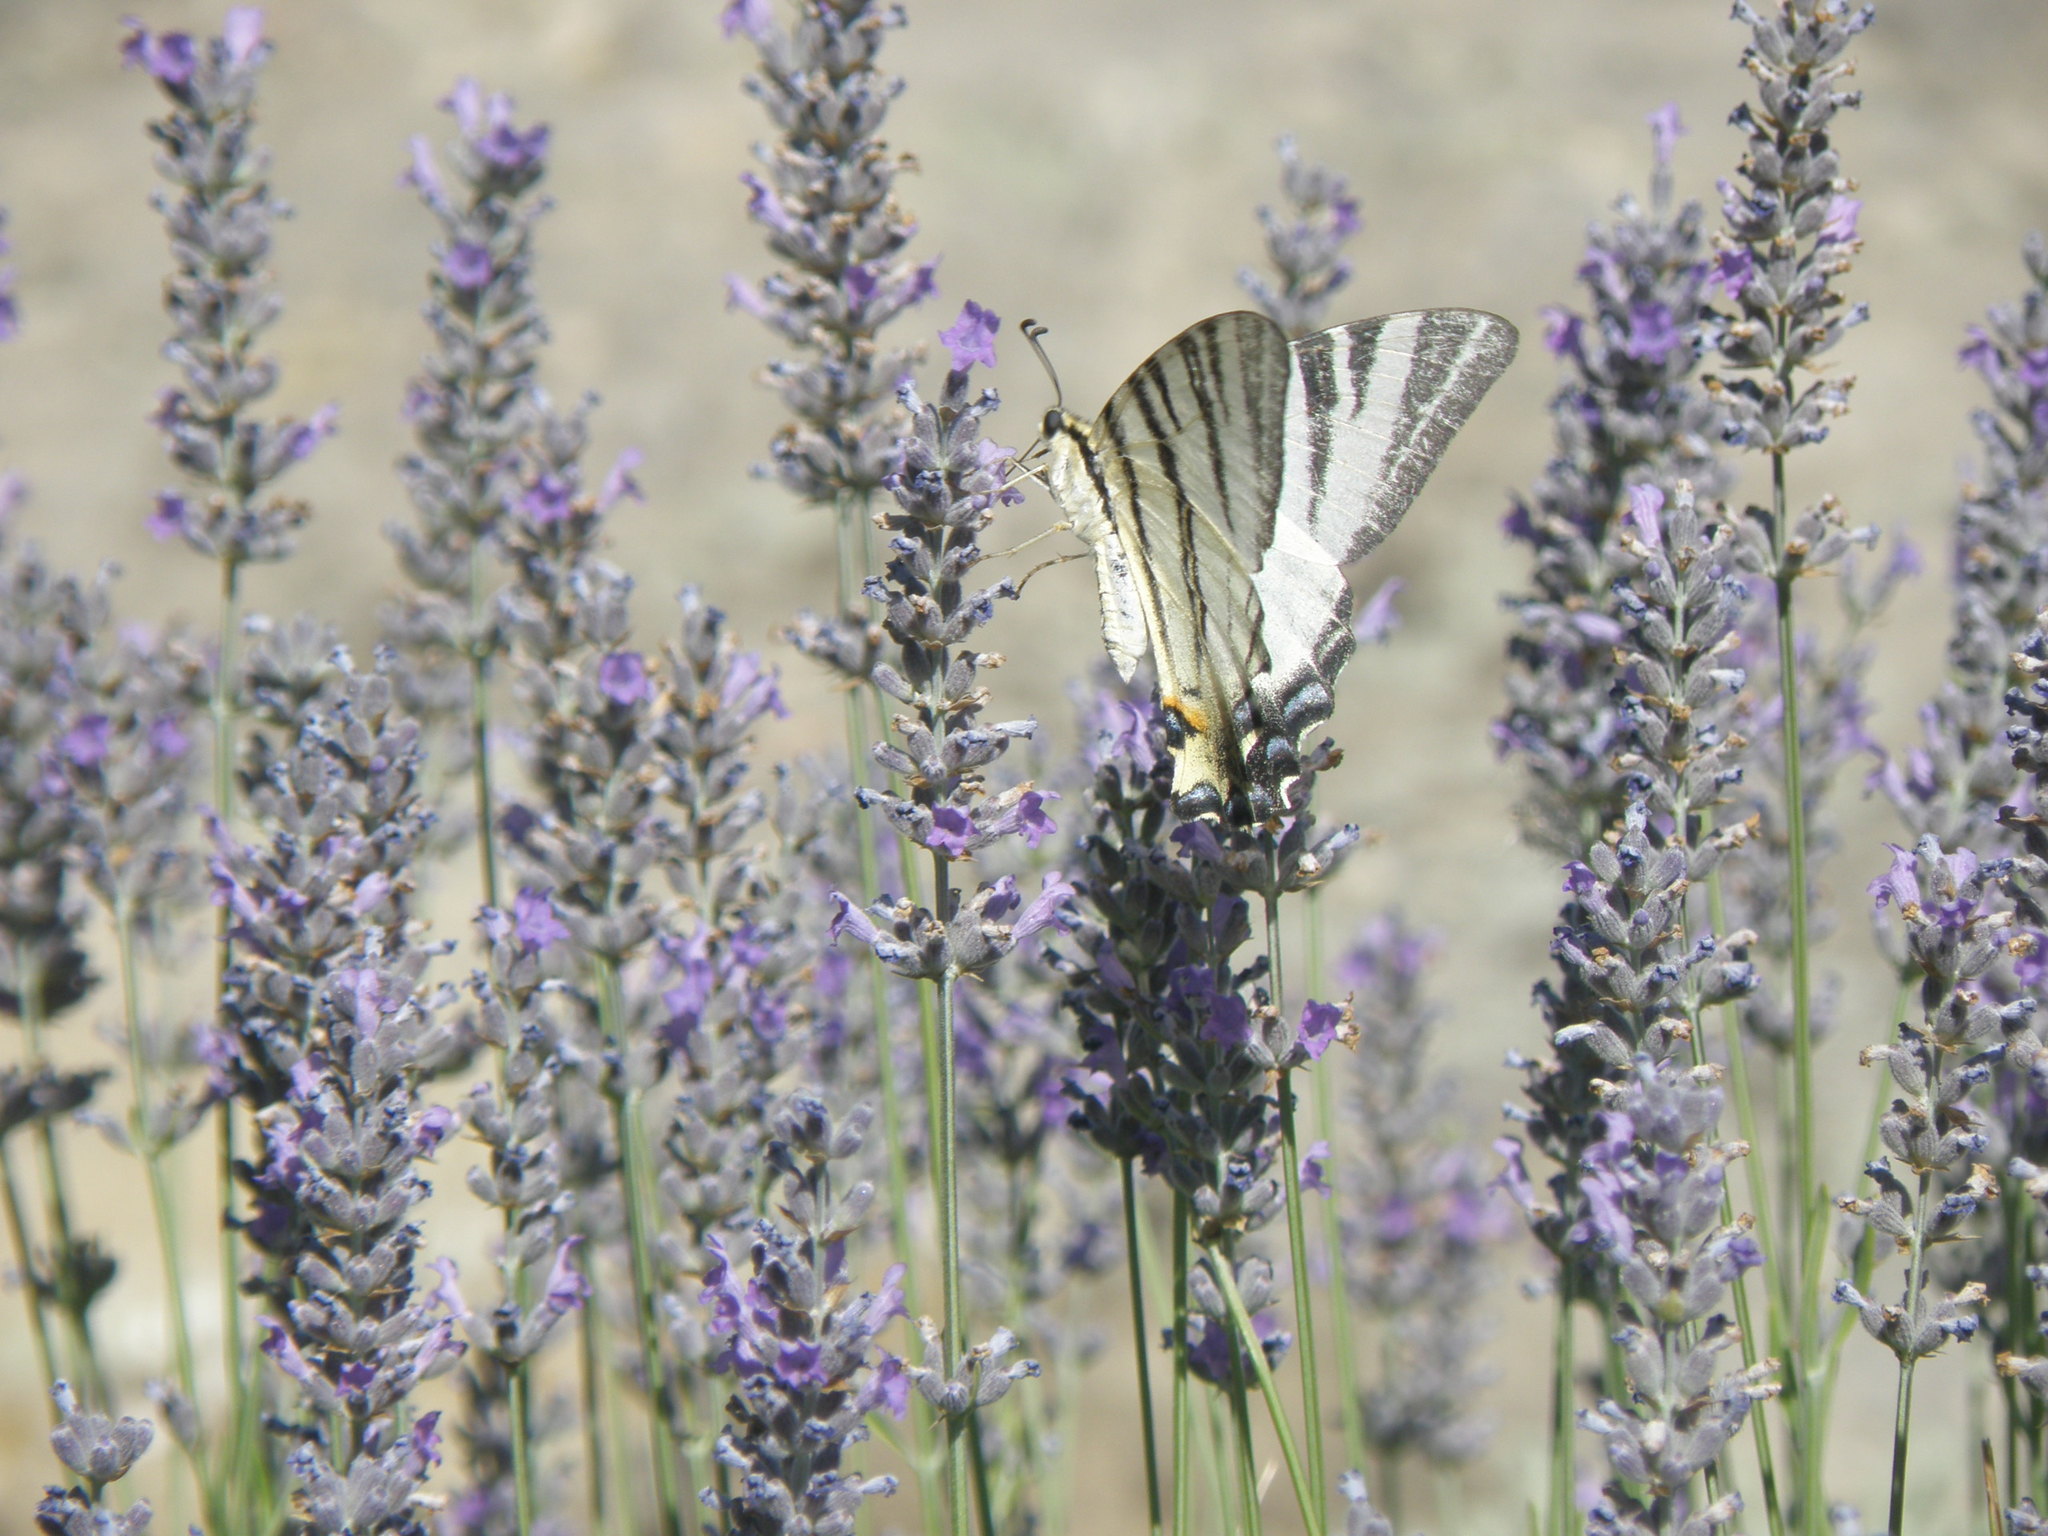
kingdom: Animalia
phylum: Arthropoda
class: Insecta
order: Lepidoptera
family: Papilionidae
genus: Iphiclides
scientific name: Iphiclides podalirius
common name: Scarce swallowtail
